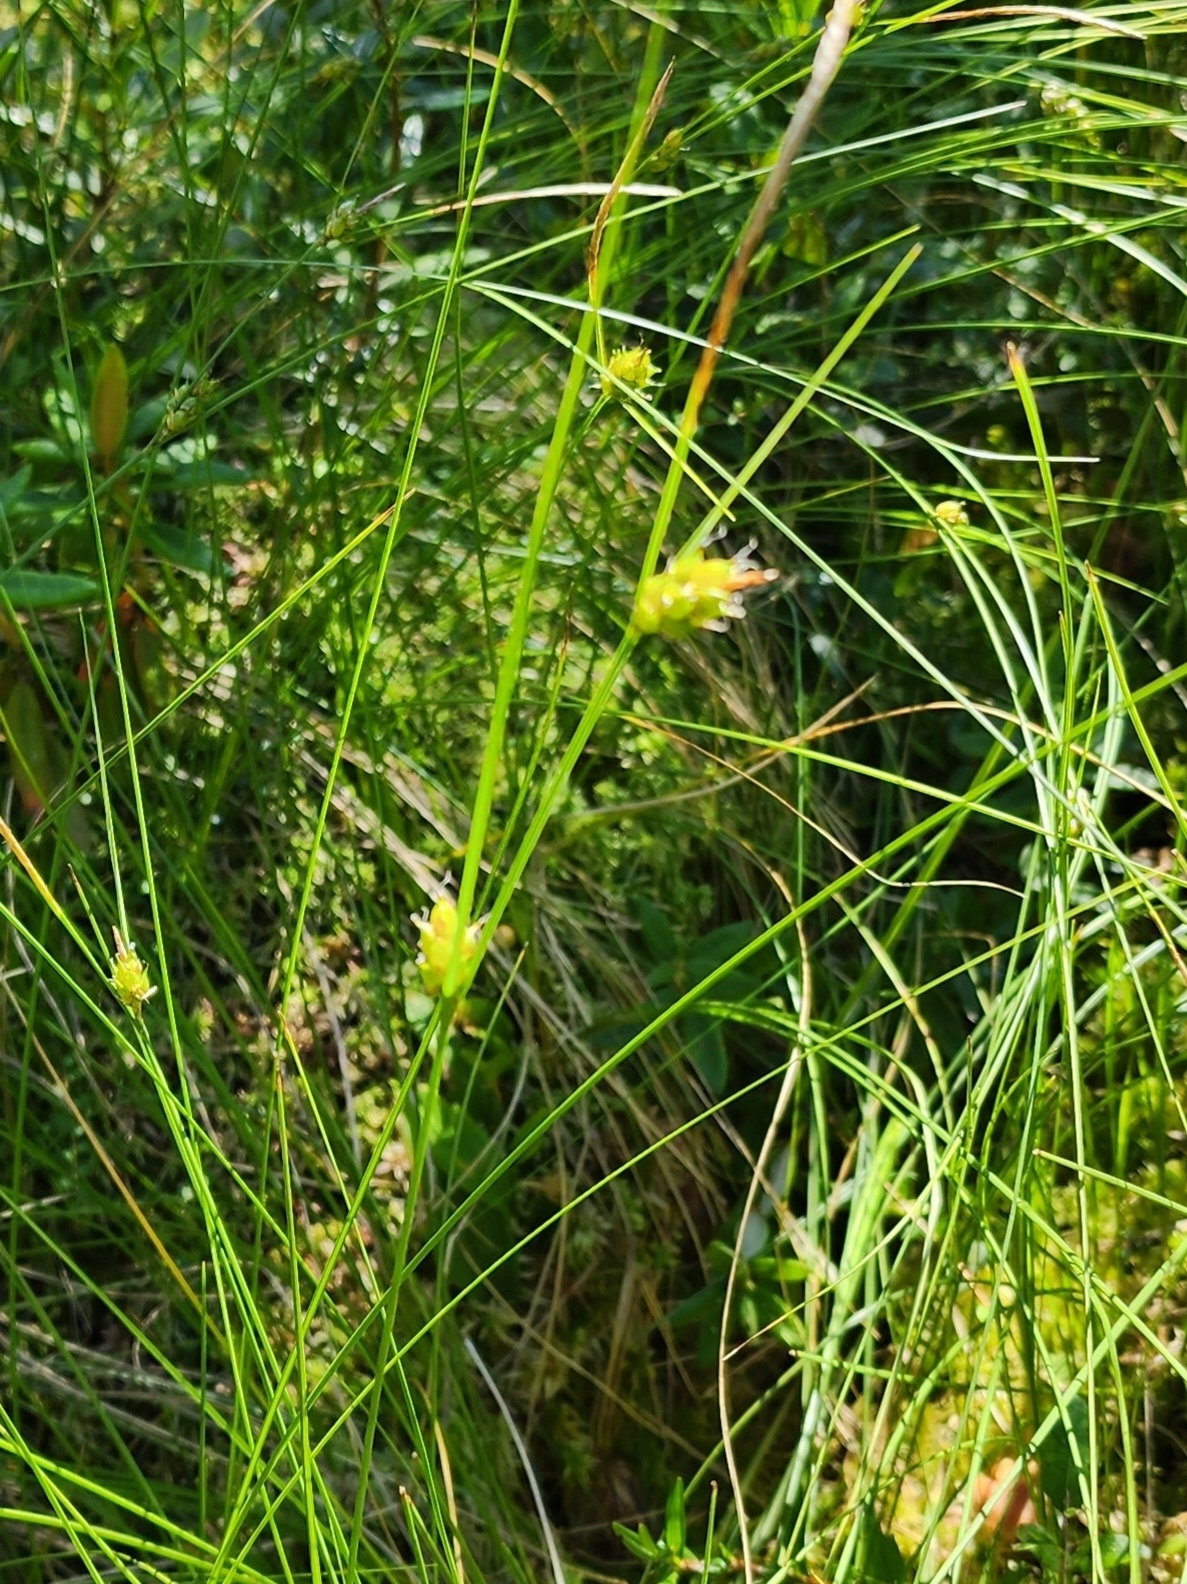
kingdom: Plantae
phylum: Tracheophyta
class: Liliopsida
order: Poales
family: Cyperaceae
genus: Carex
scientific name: Carex oligosperma
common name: Few-seed sedge
